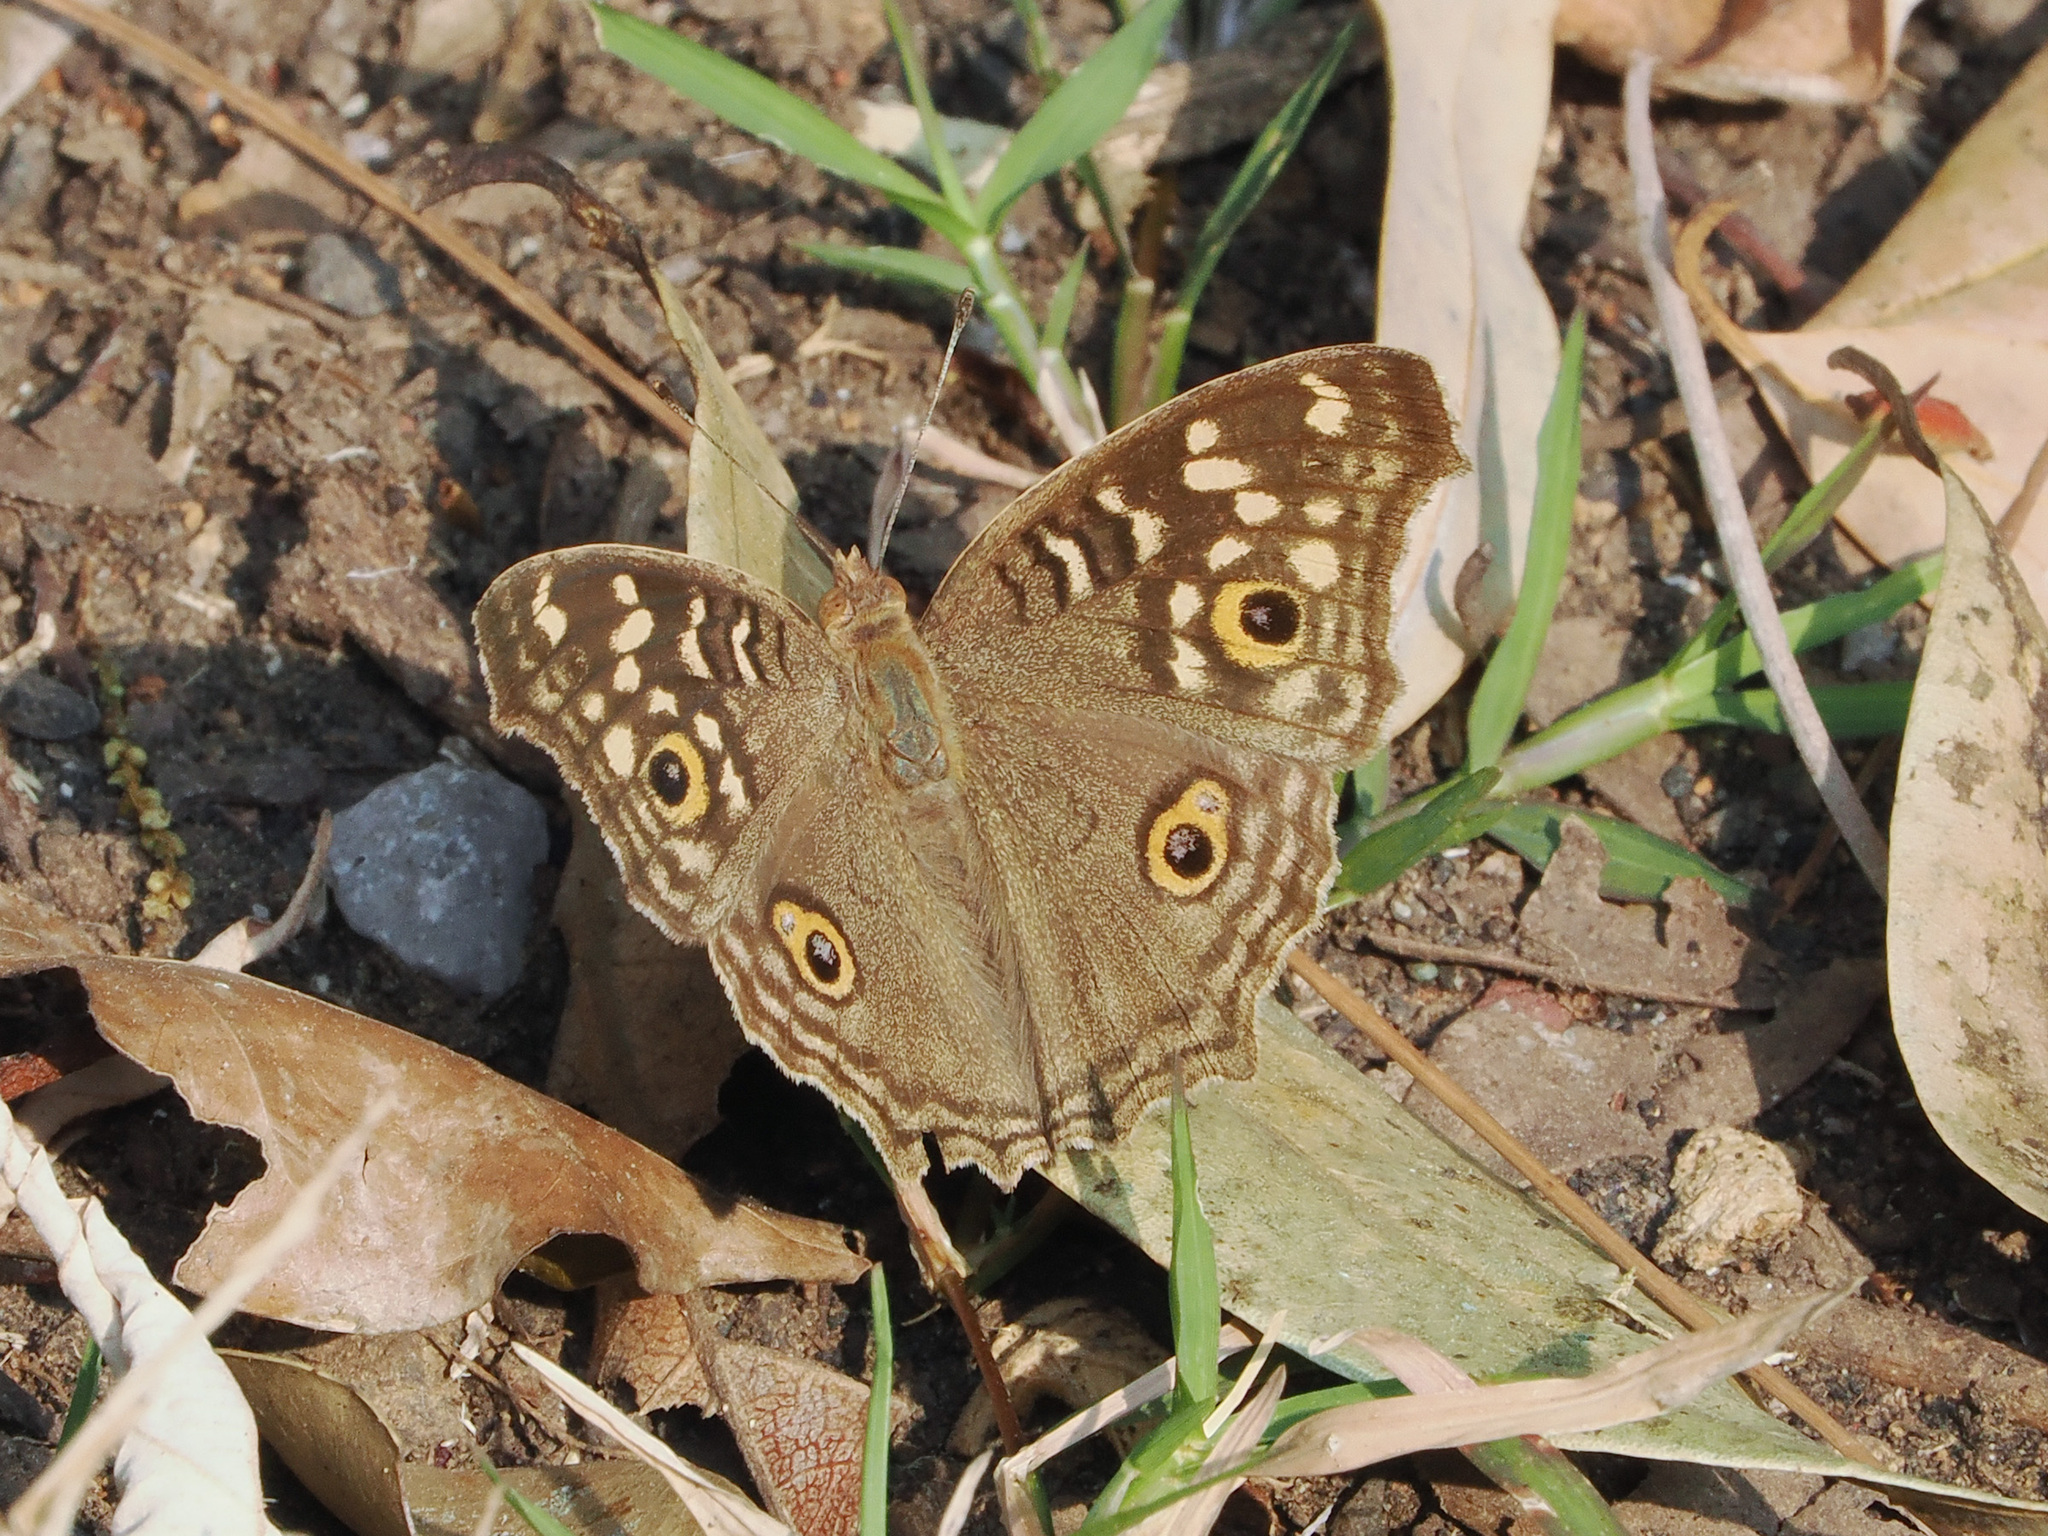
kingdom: Animalia
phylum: Arthropoda
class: Insecta
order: Lepidoptera
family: Nymphalidae
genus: Junonia
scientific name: Junonia lemonias
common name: Lemon pansy
